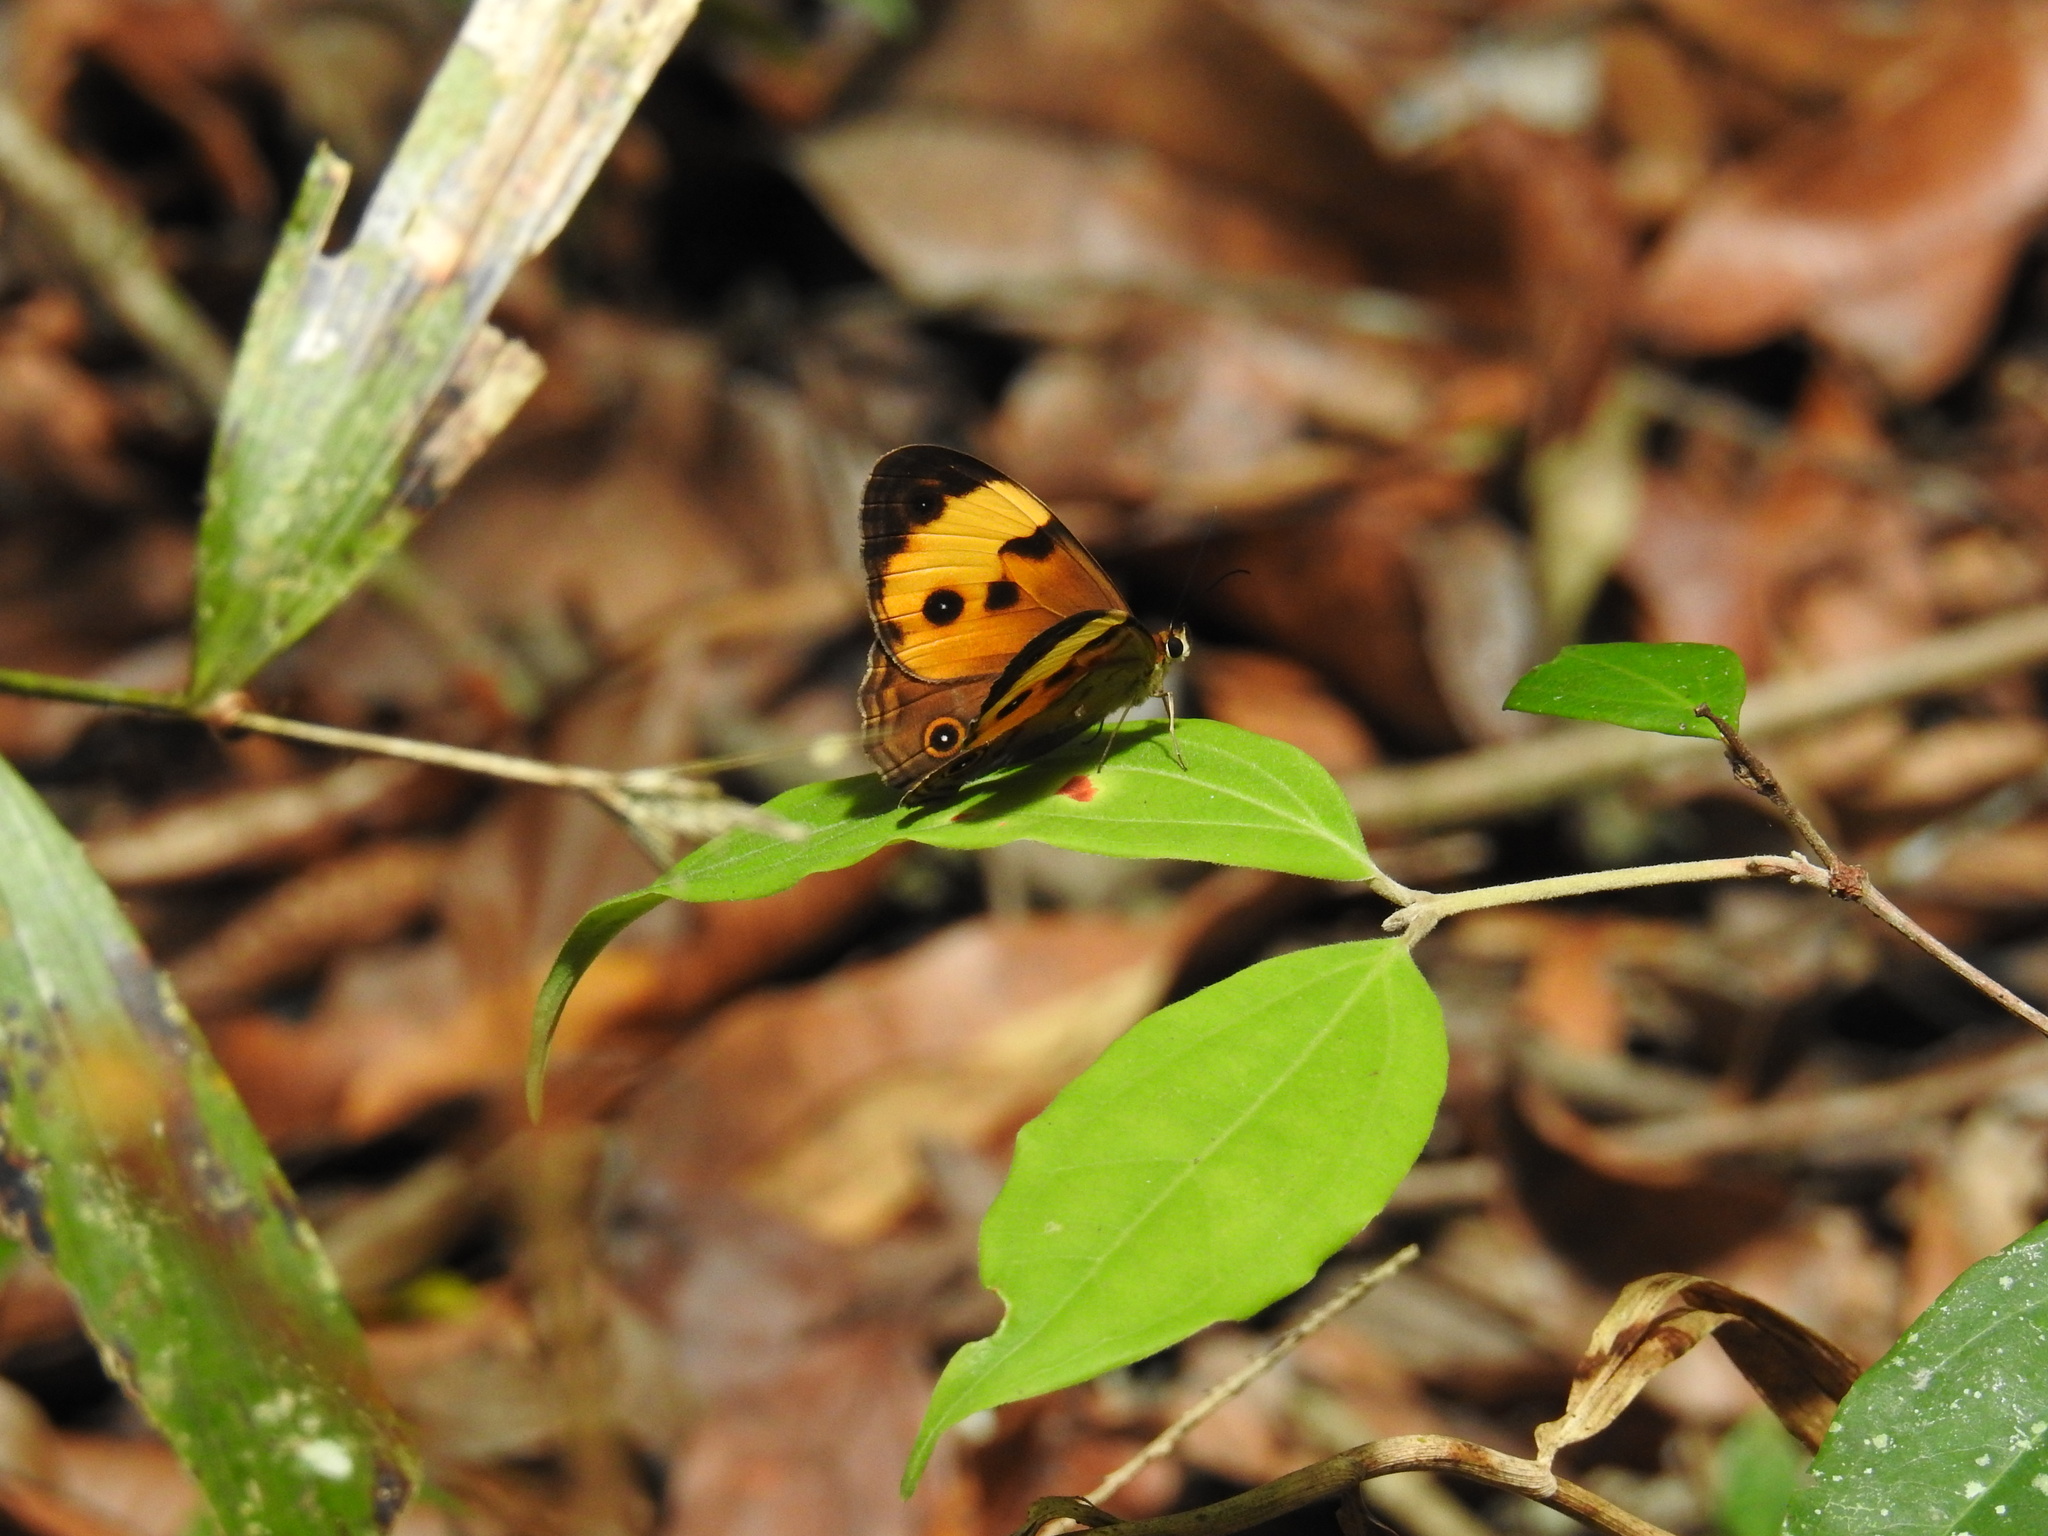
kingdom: Animalia
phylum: Arthropoda
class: Insecta
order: Lepidoptera
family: Nymphalidae
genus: Tisiphone
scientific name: Tisiphone helena
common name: Northern sword-grass brown
